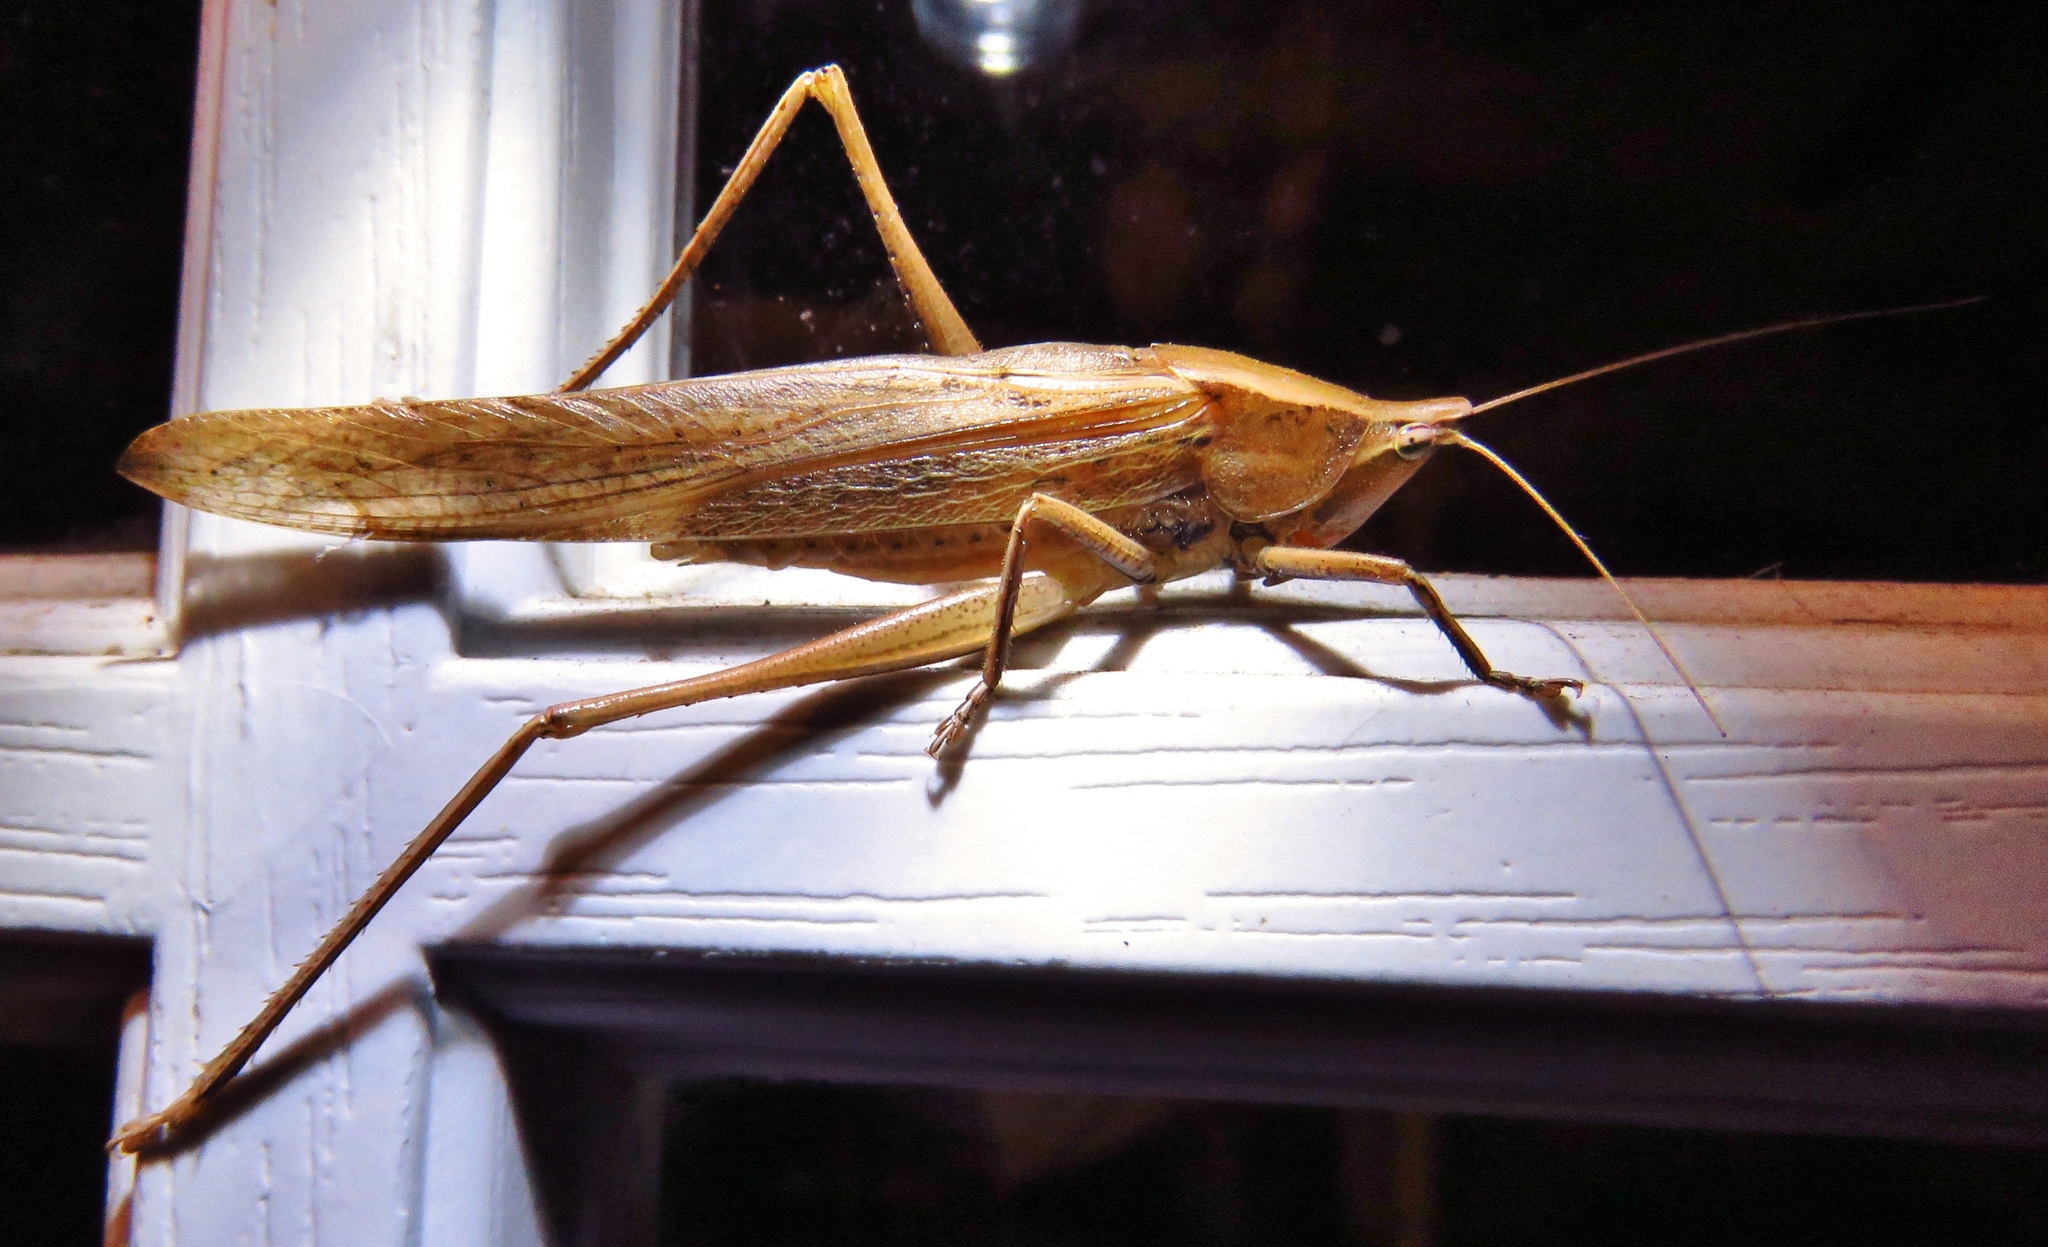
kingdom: Animalia
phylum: Arthropoda
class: Insecta
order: Orthoptera
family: Tettigoniidae
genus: Neoconocephalus
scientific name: Neoconocephalus triops
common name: Broad-tipped conehead
